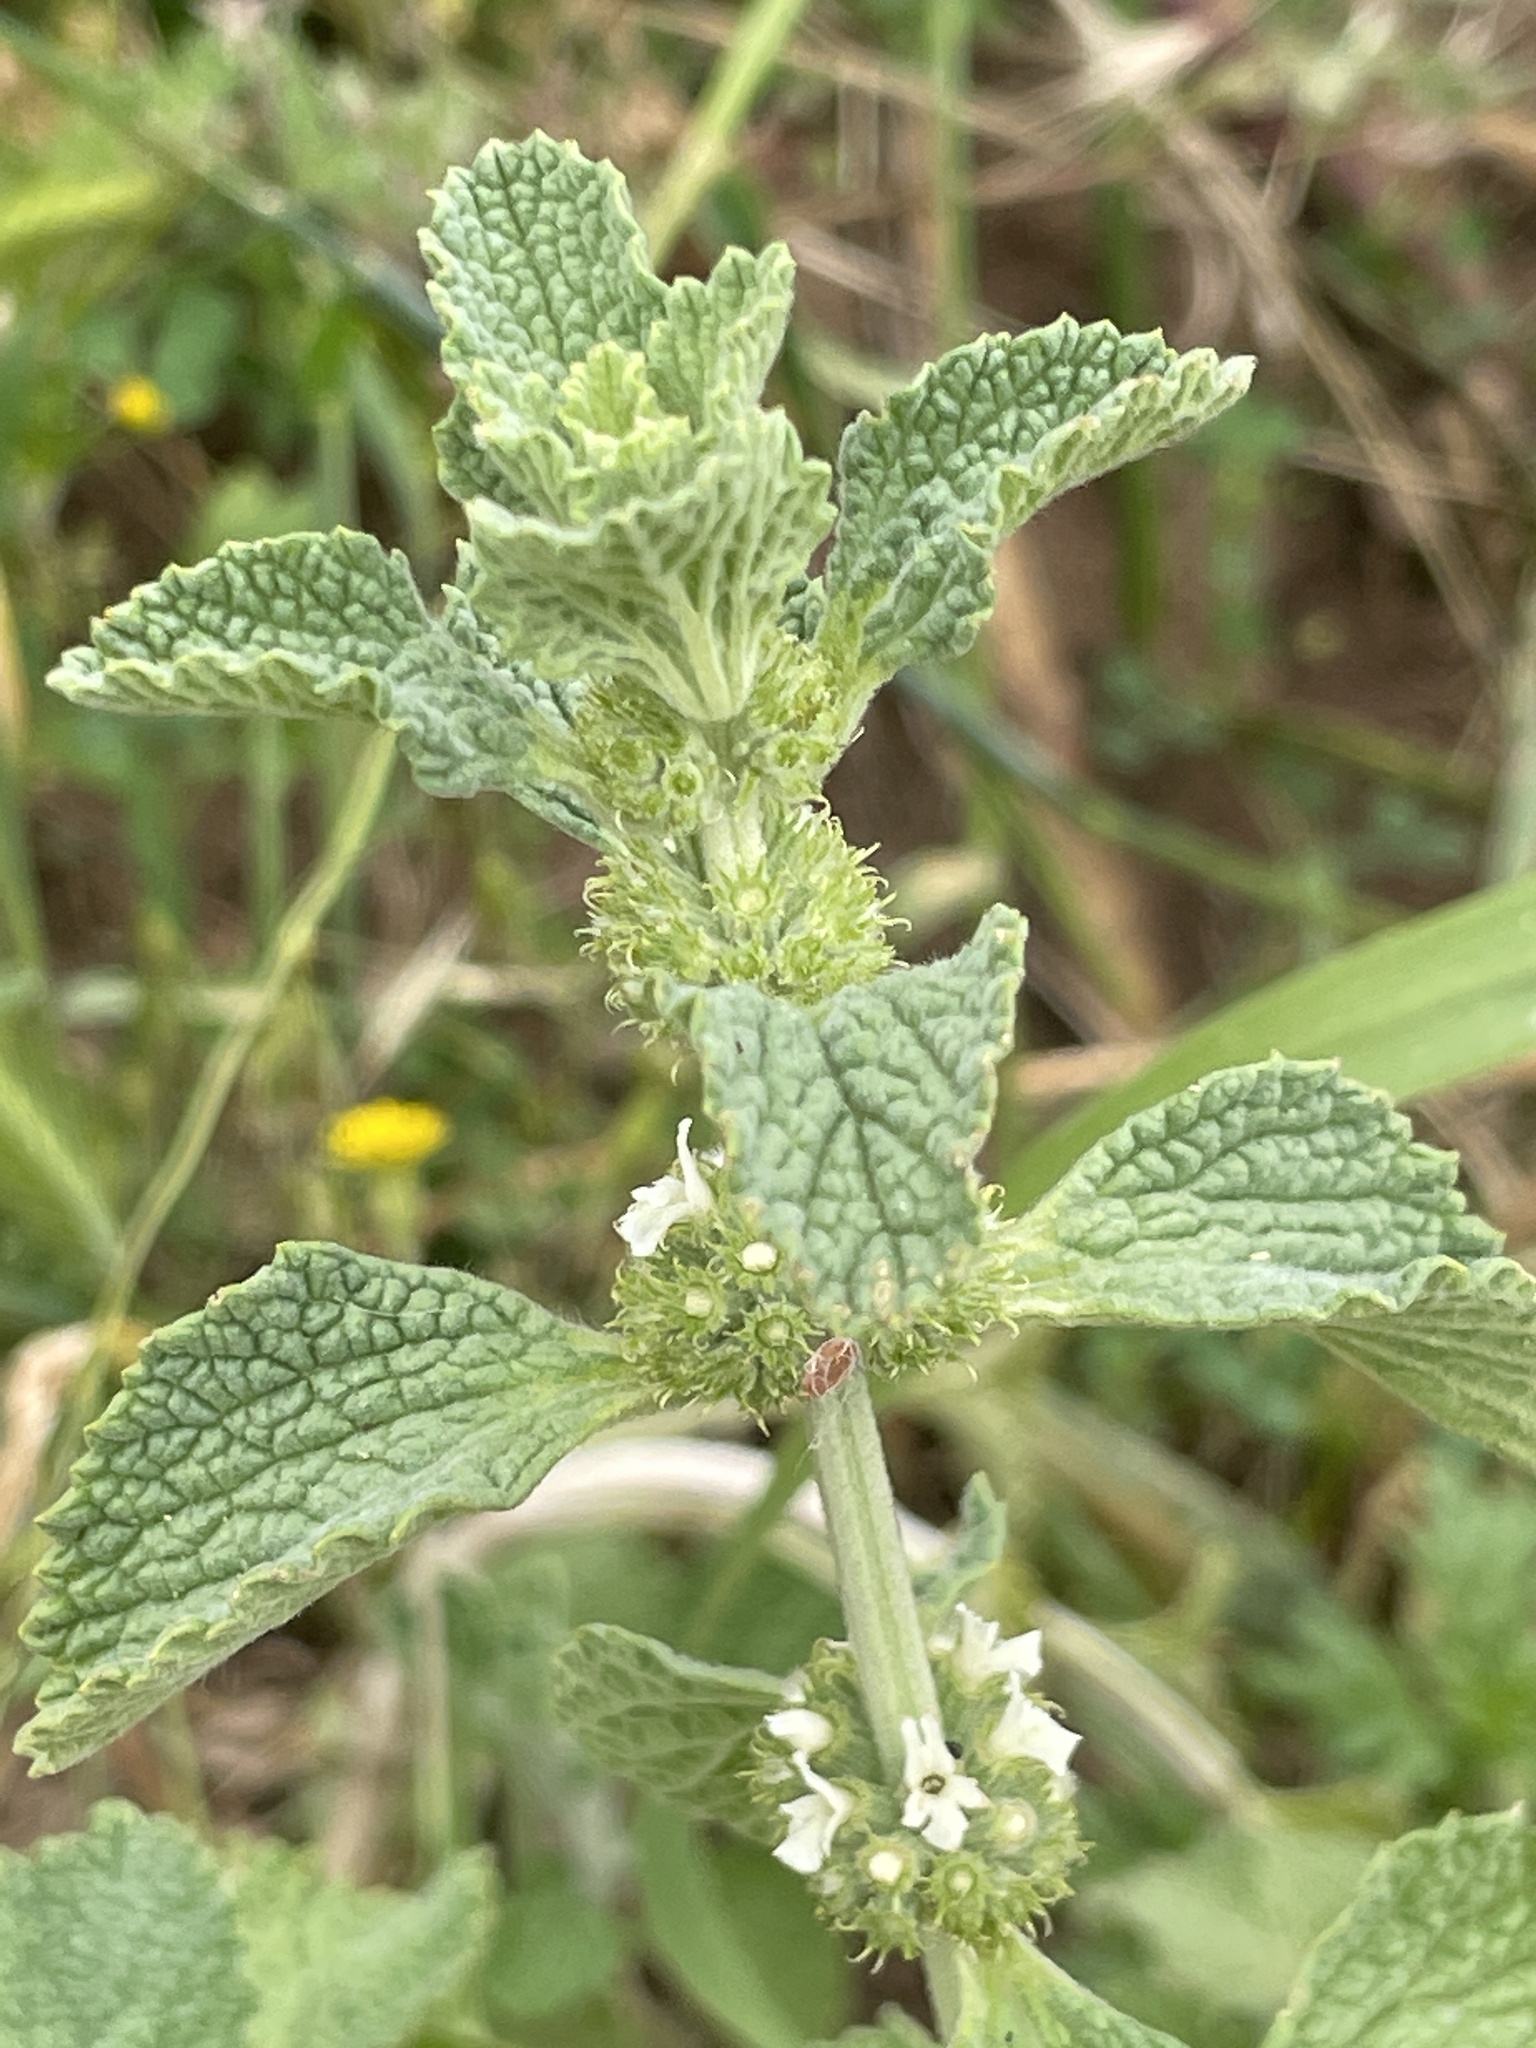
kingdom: Plantae
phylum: Tracheophyta
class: Magnoliopsida
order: Lamiales
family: Lamiaceae
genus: Marrubium
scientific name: Marrubium vulgare
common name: Horehound
